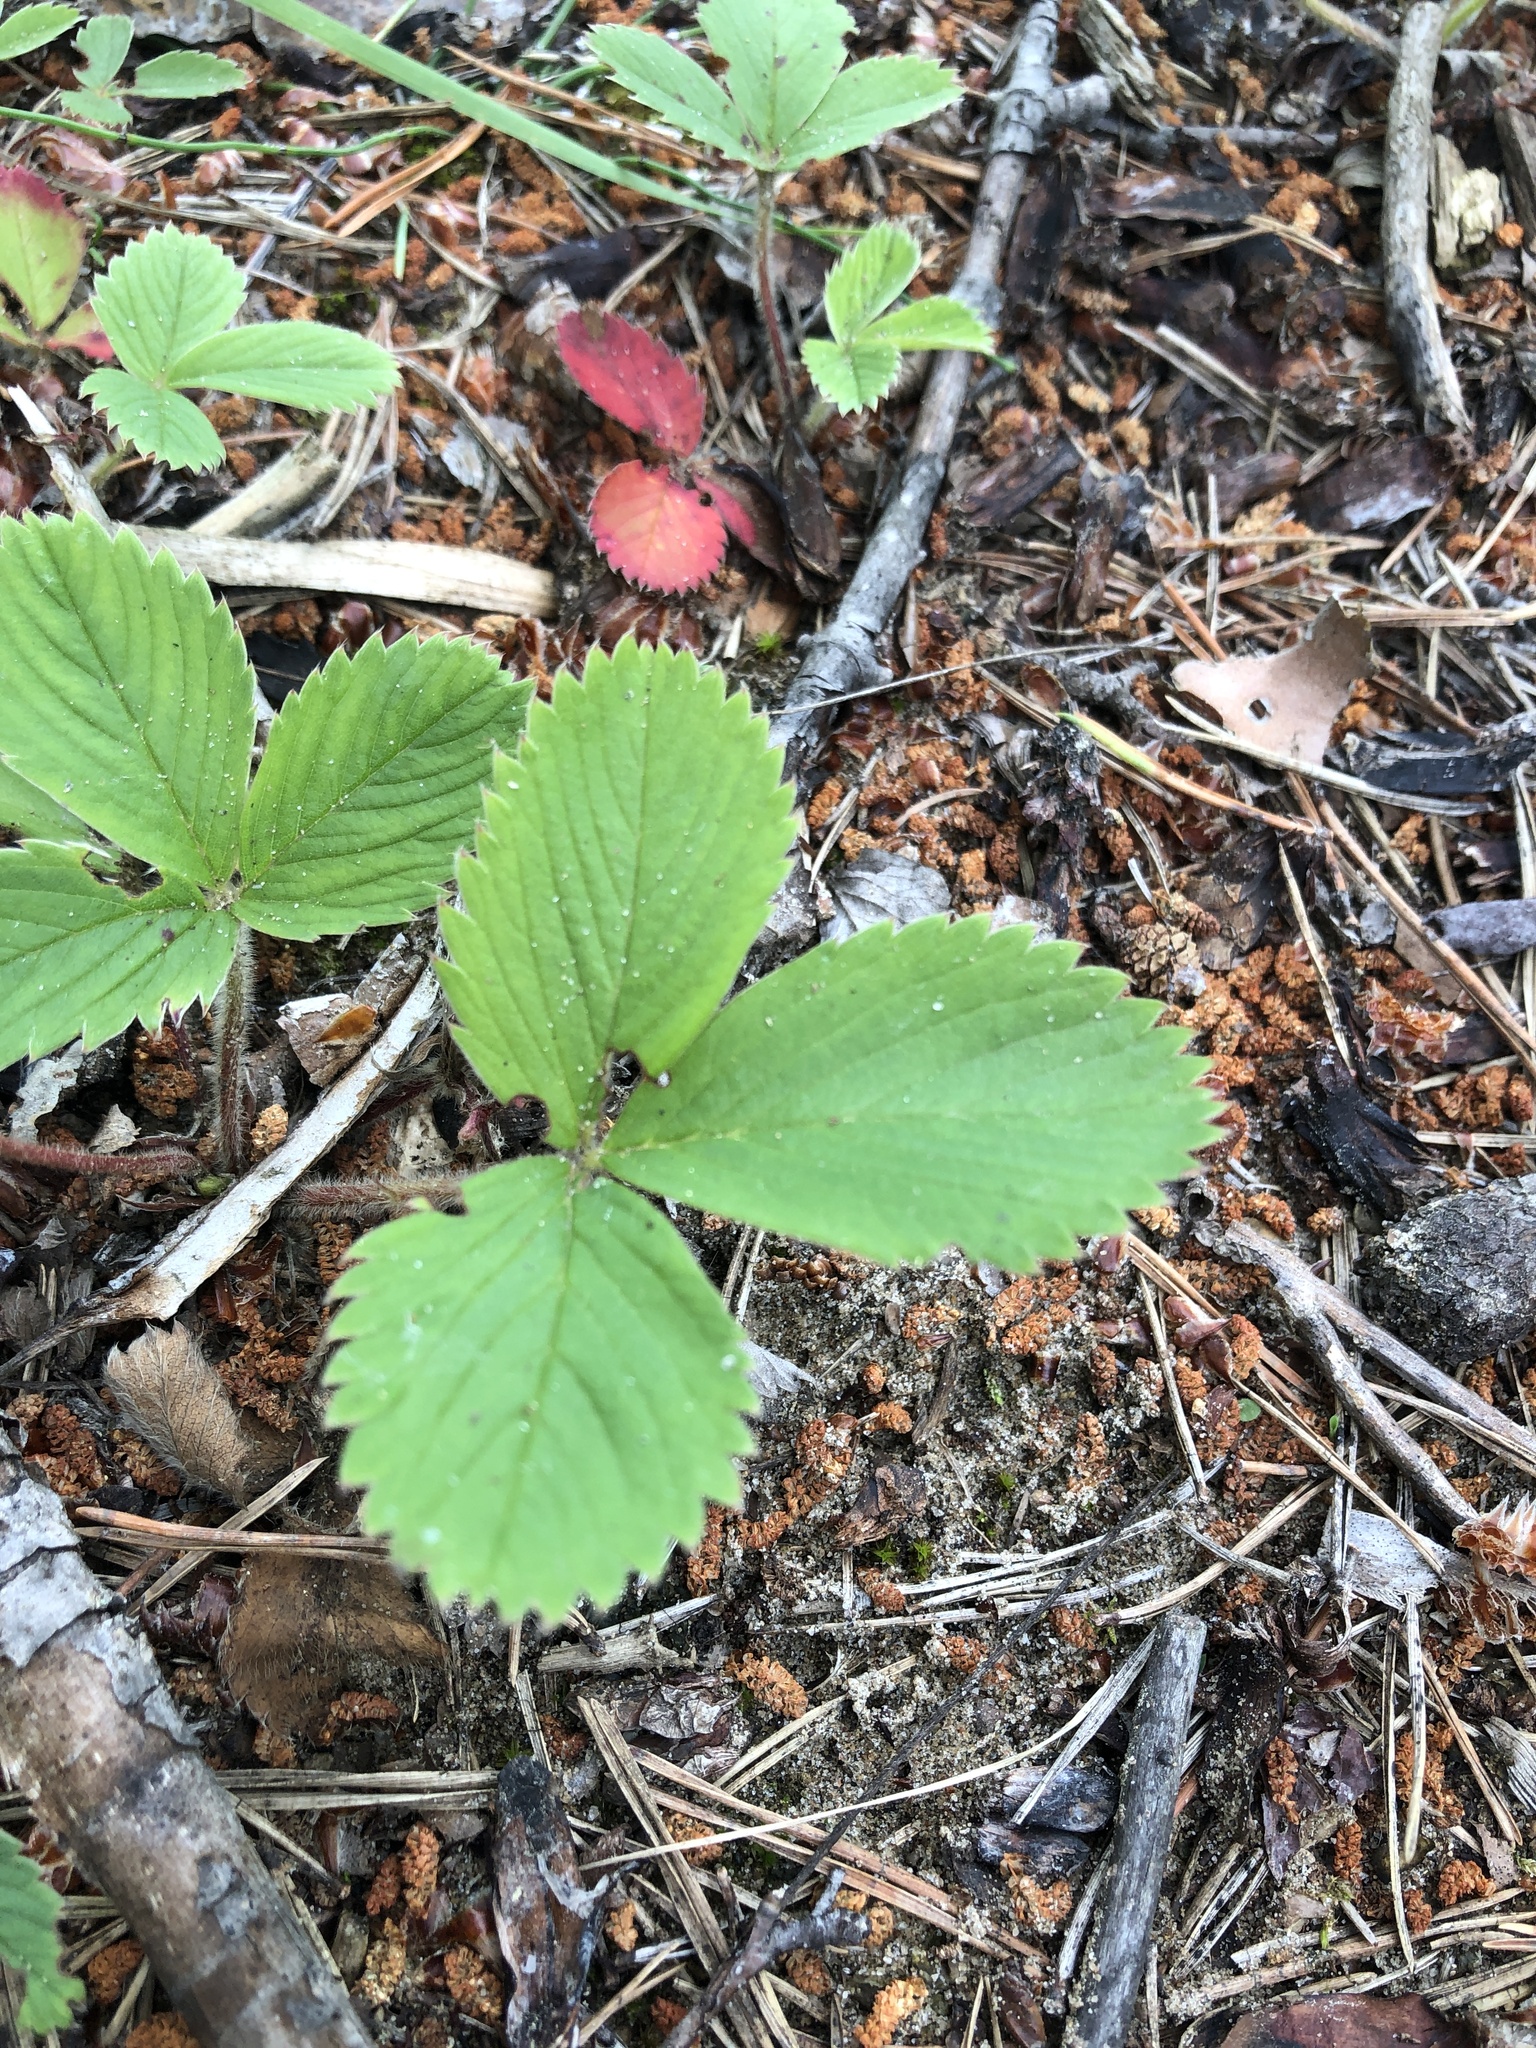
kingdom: Plantae
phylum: Tracheophyta
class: Magnoliopsida
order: Rosales
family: Rosaceae
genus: Fragaria
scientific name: Fragaria virginiana
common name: Thickleaved wild strawberry
